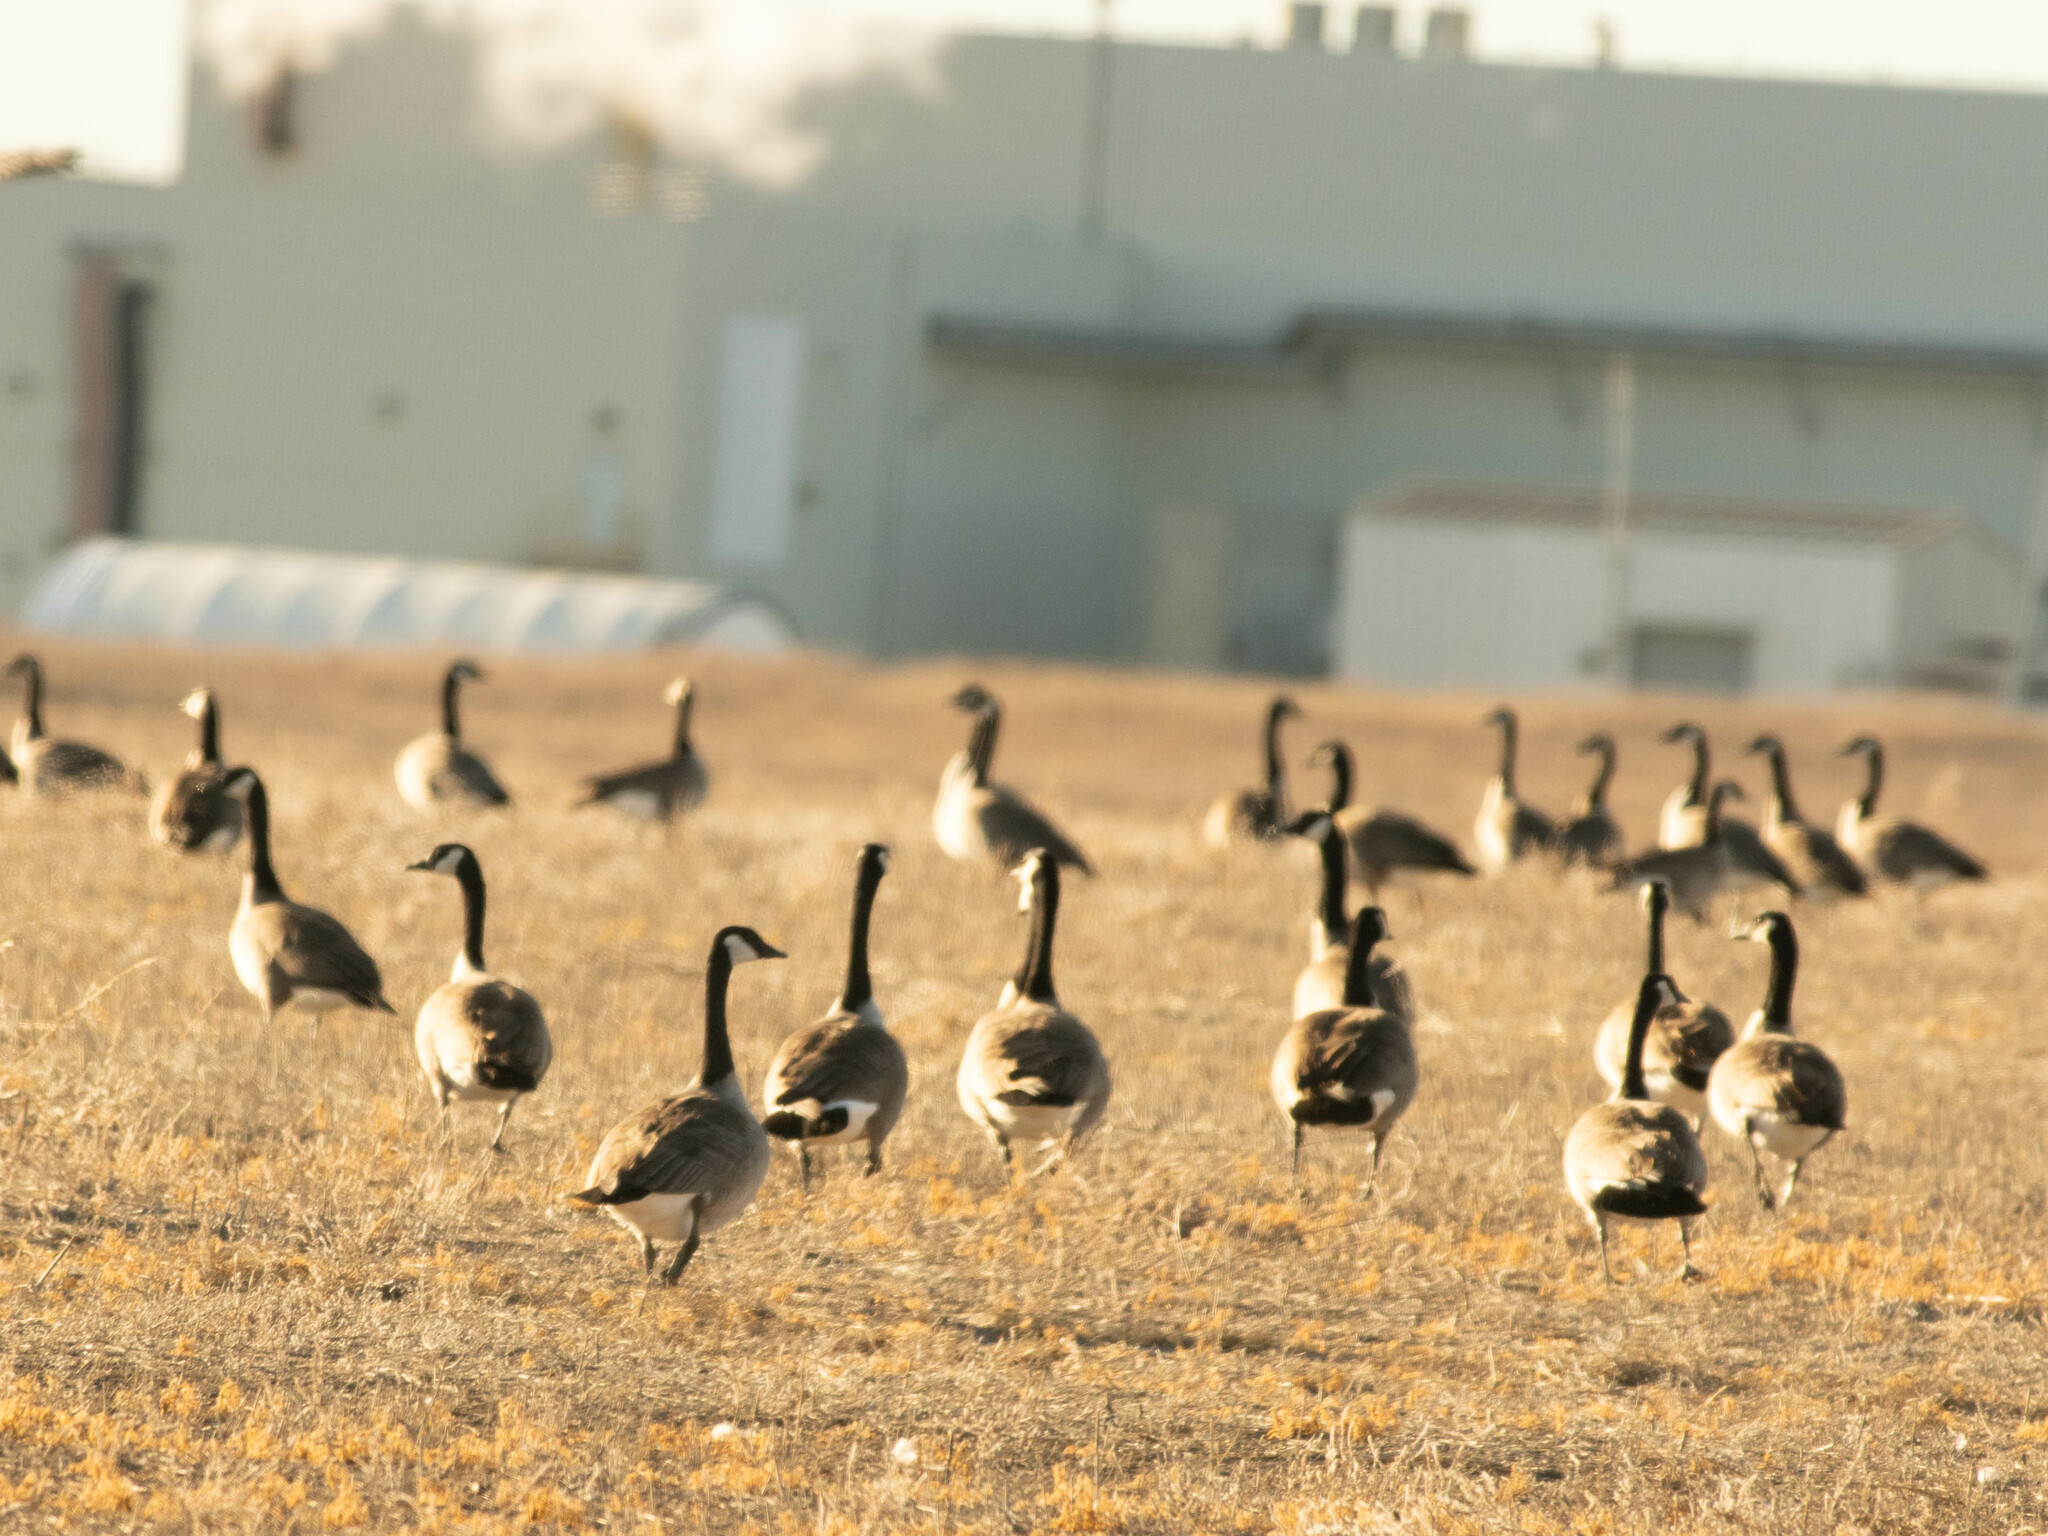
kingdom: Animalia
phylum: Chordata
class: Aves
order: Anseriformes
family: Anatidae
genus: Branta
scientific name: Branta canadensis
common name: Canada goose
